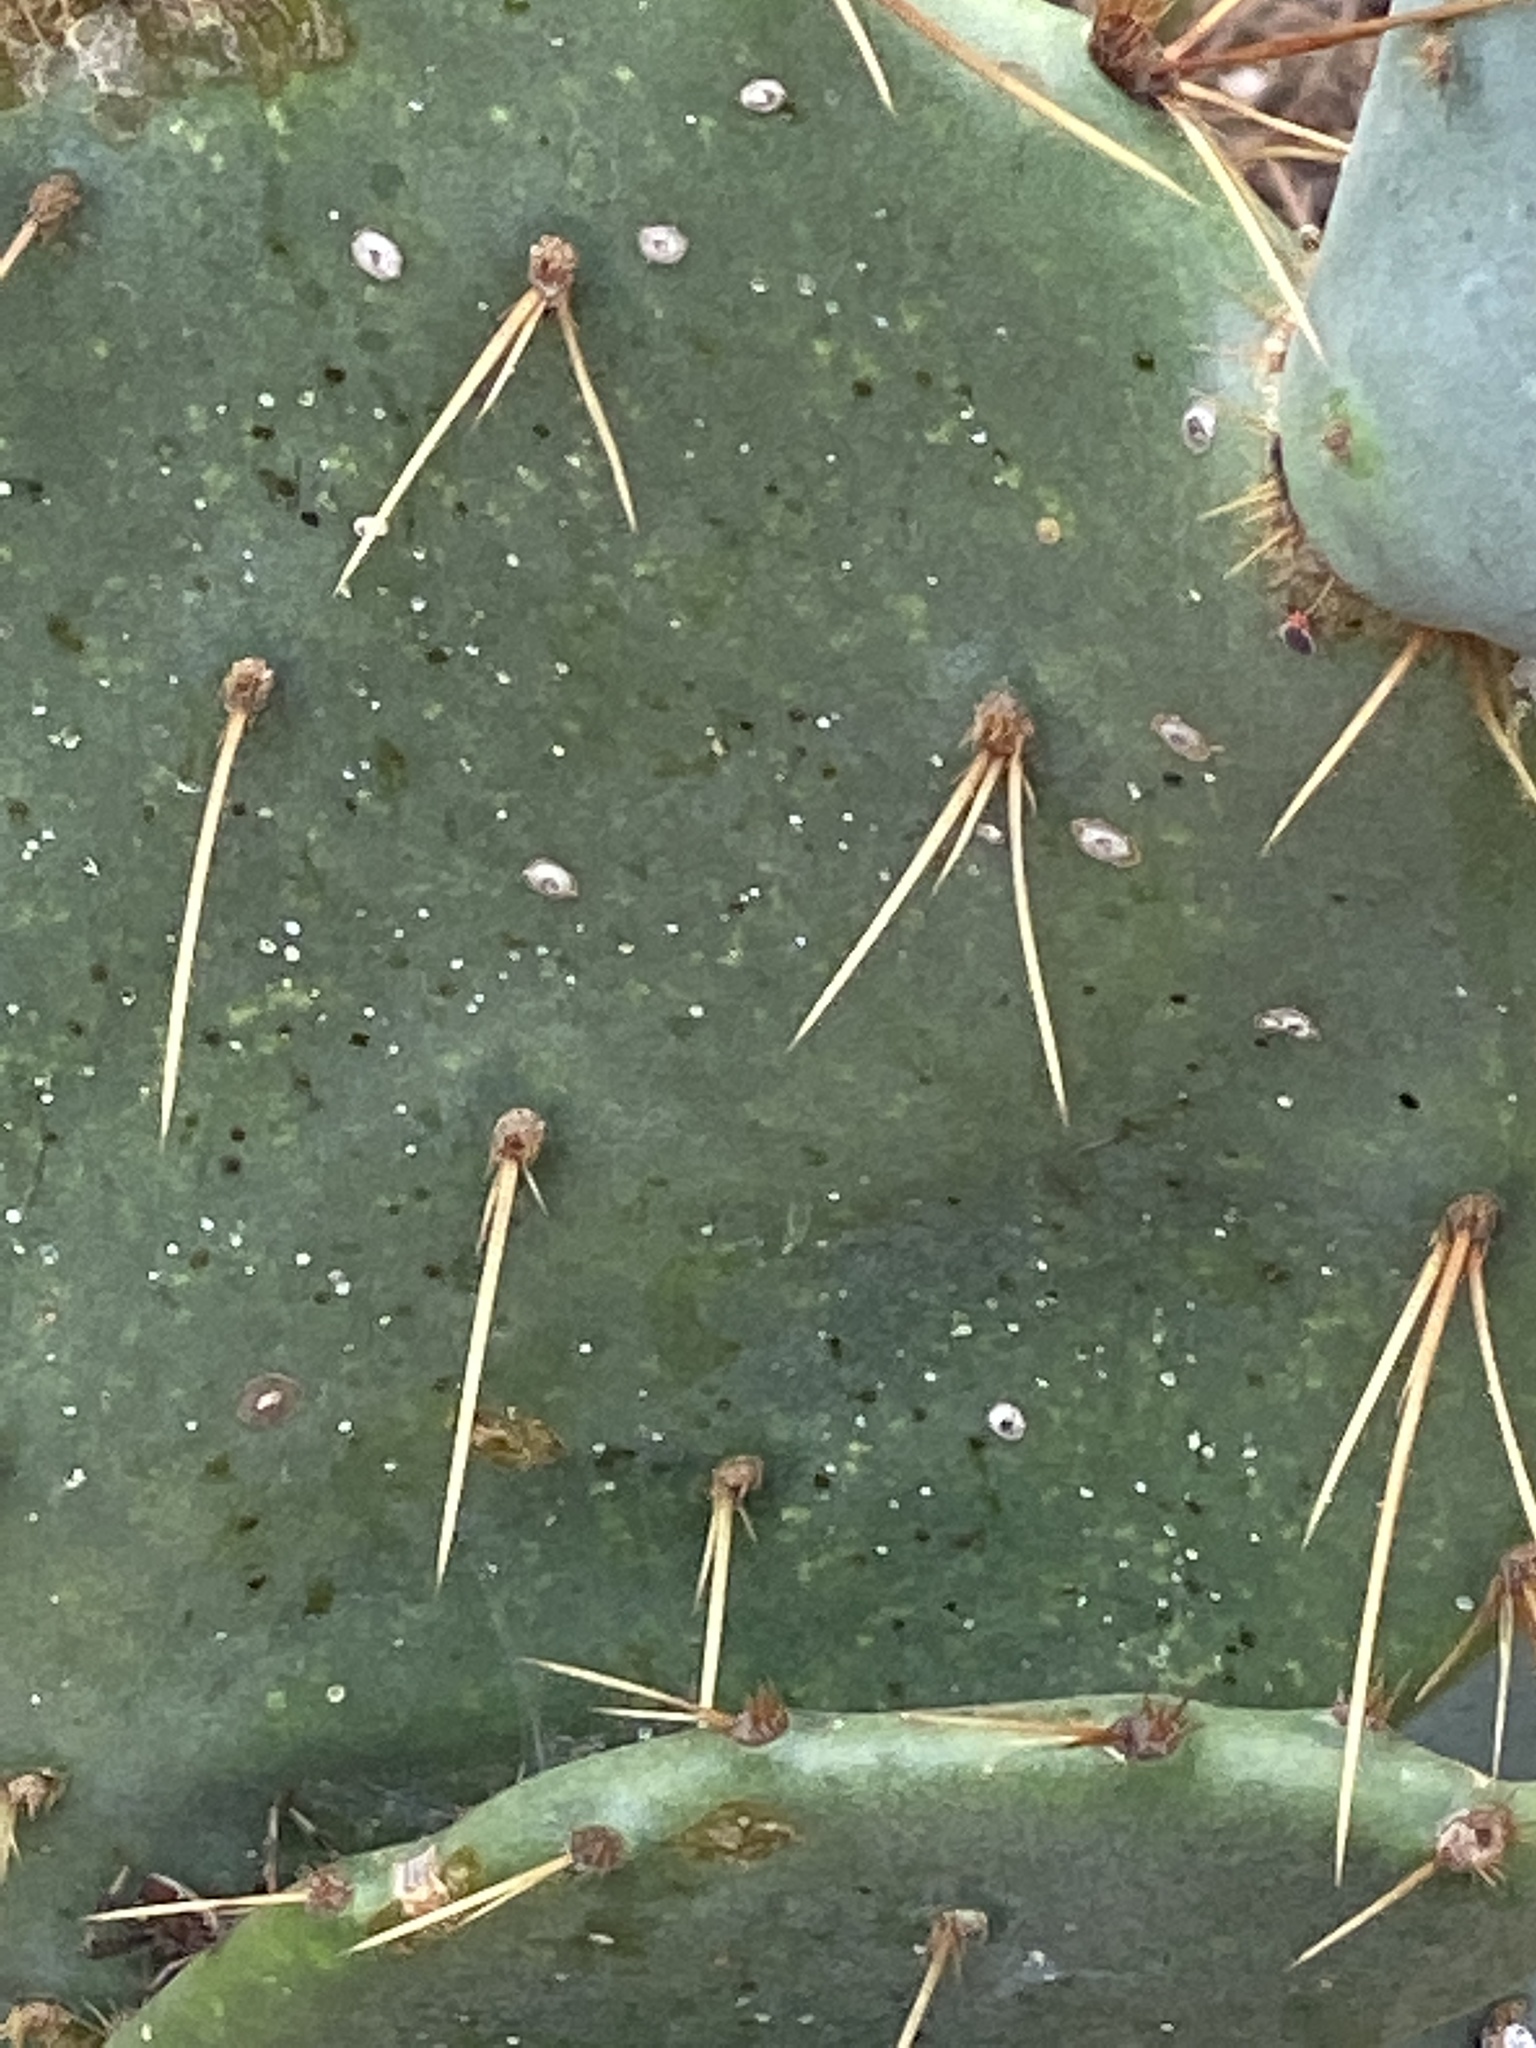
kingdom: Plantae
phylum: Tracheophyta
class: Magnoliopsida
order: Caryophyllales
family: Cactaceae
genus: Opuntia
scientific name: Opuntia engelmannii
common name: Cactus-apple
